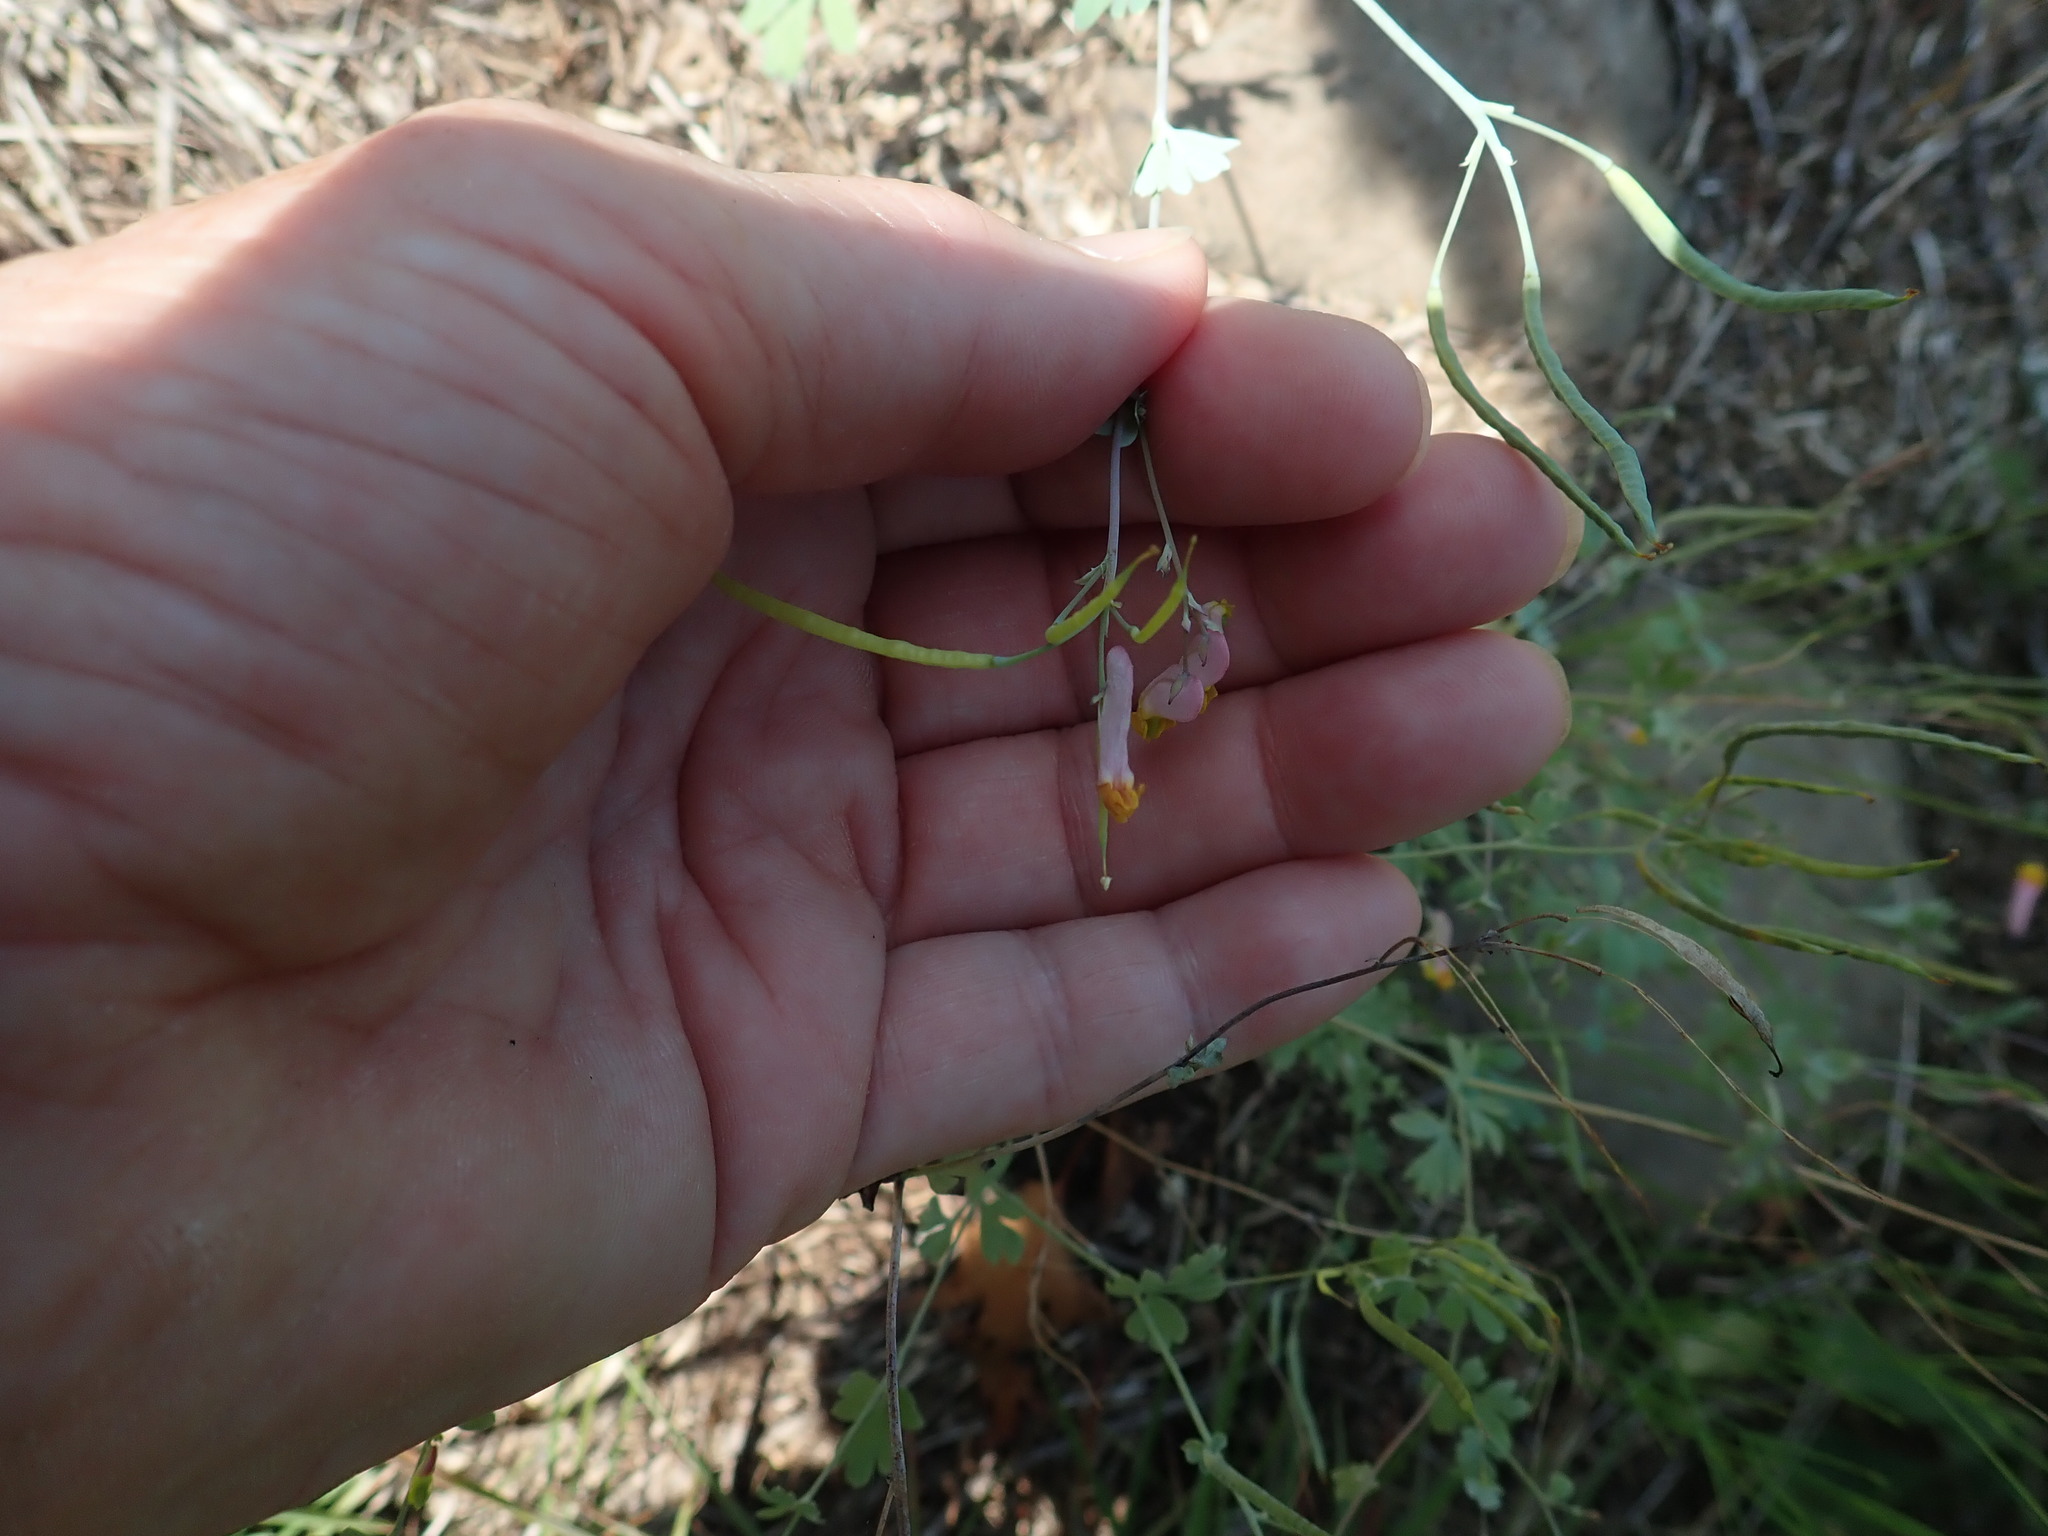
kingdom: Plantae
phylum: Tracheophyta
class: Magnoliopsida
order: Ranunculales
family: Papaveraceae
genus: Capnoides
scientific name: Capnoides sempervirens
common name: Rock harlequin
